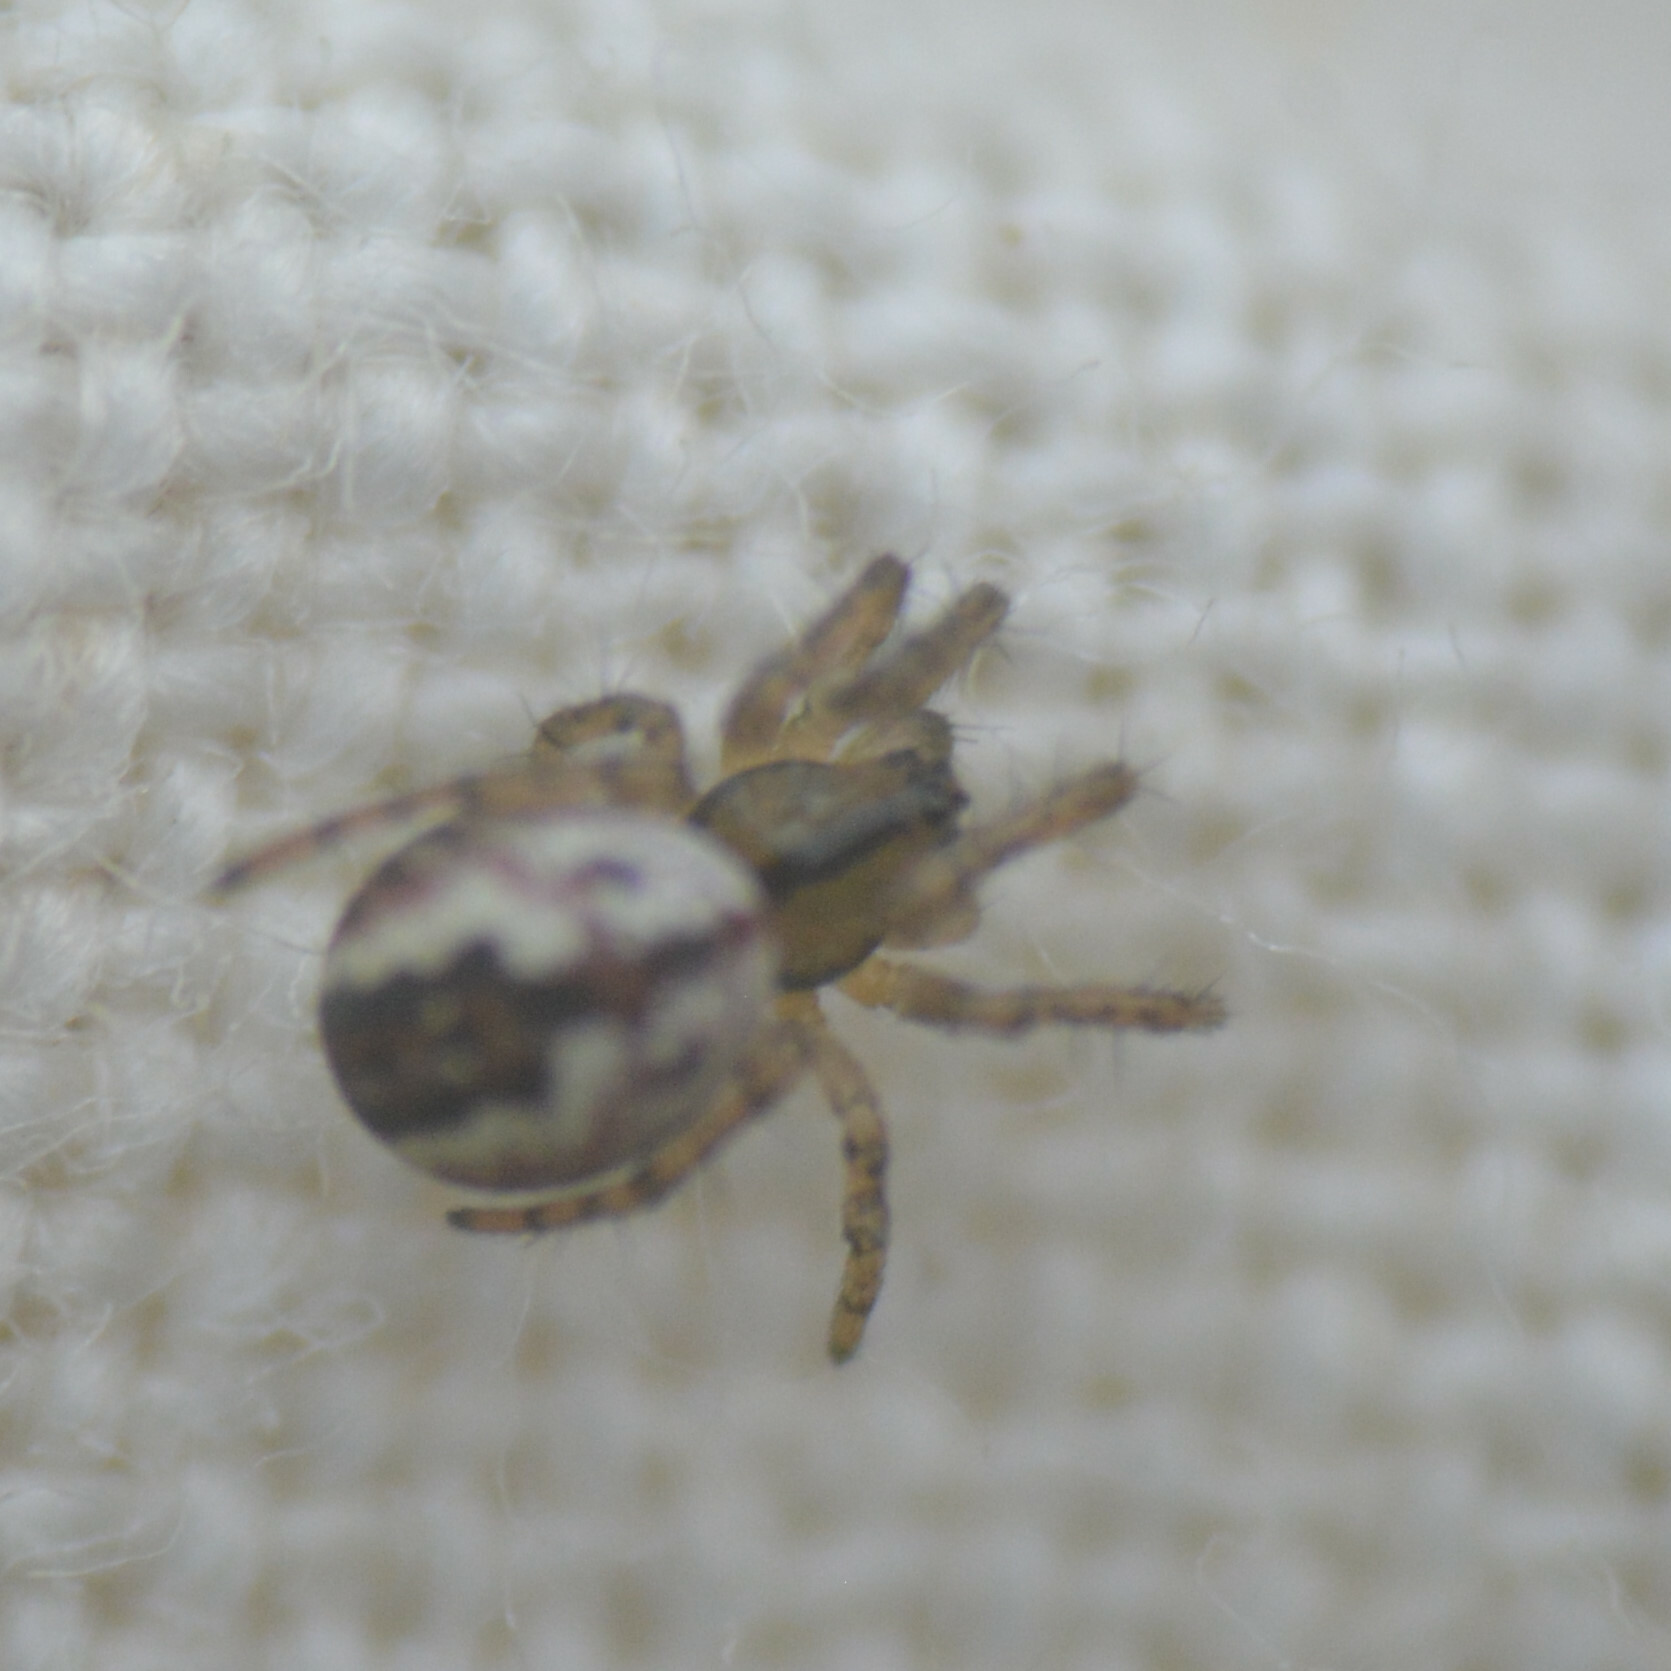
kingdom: Animalia
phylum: Arthropoda
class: Arachnida
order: Araneae
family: Araneidae
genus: Mangora
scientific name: Mangora acalypha
